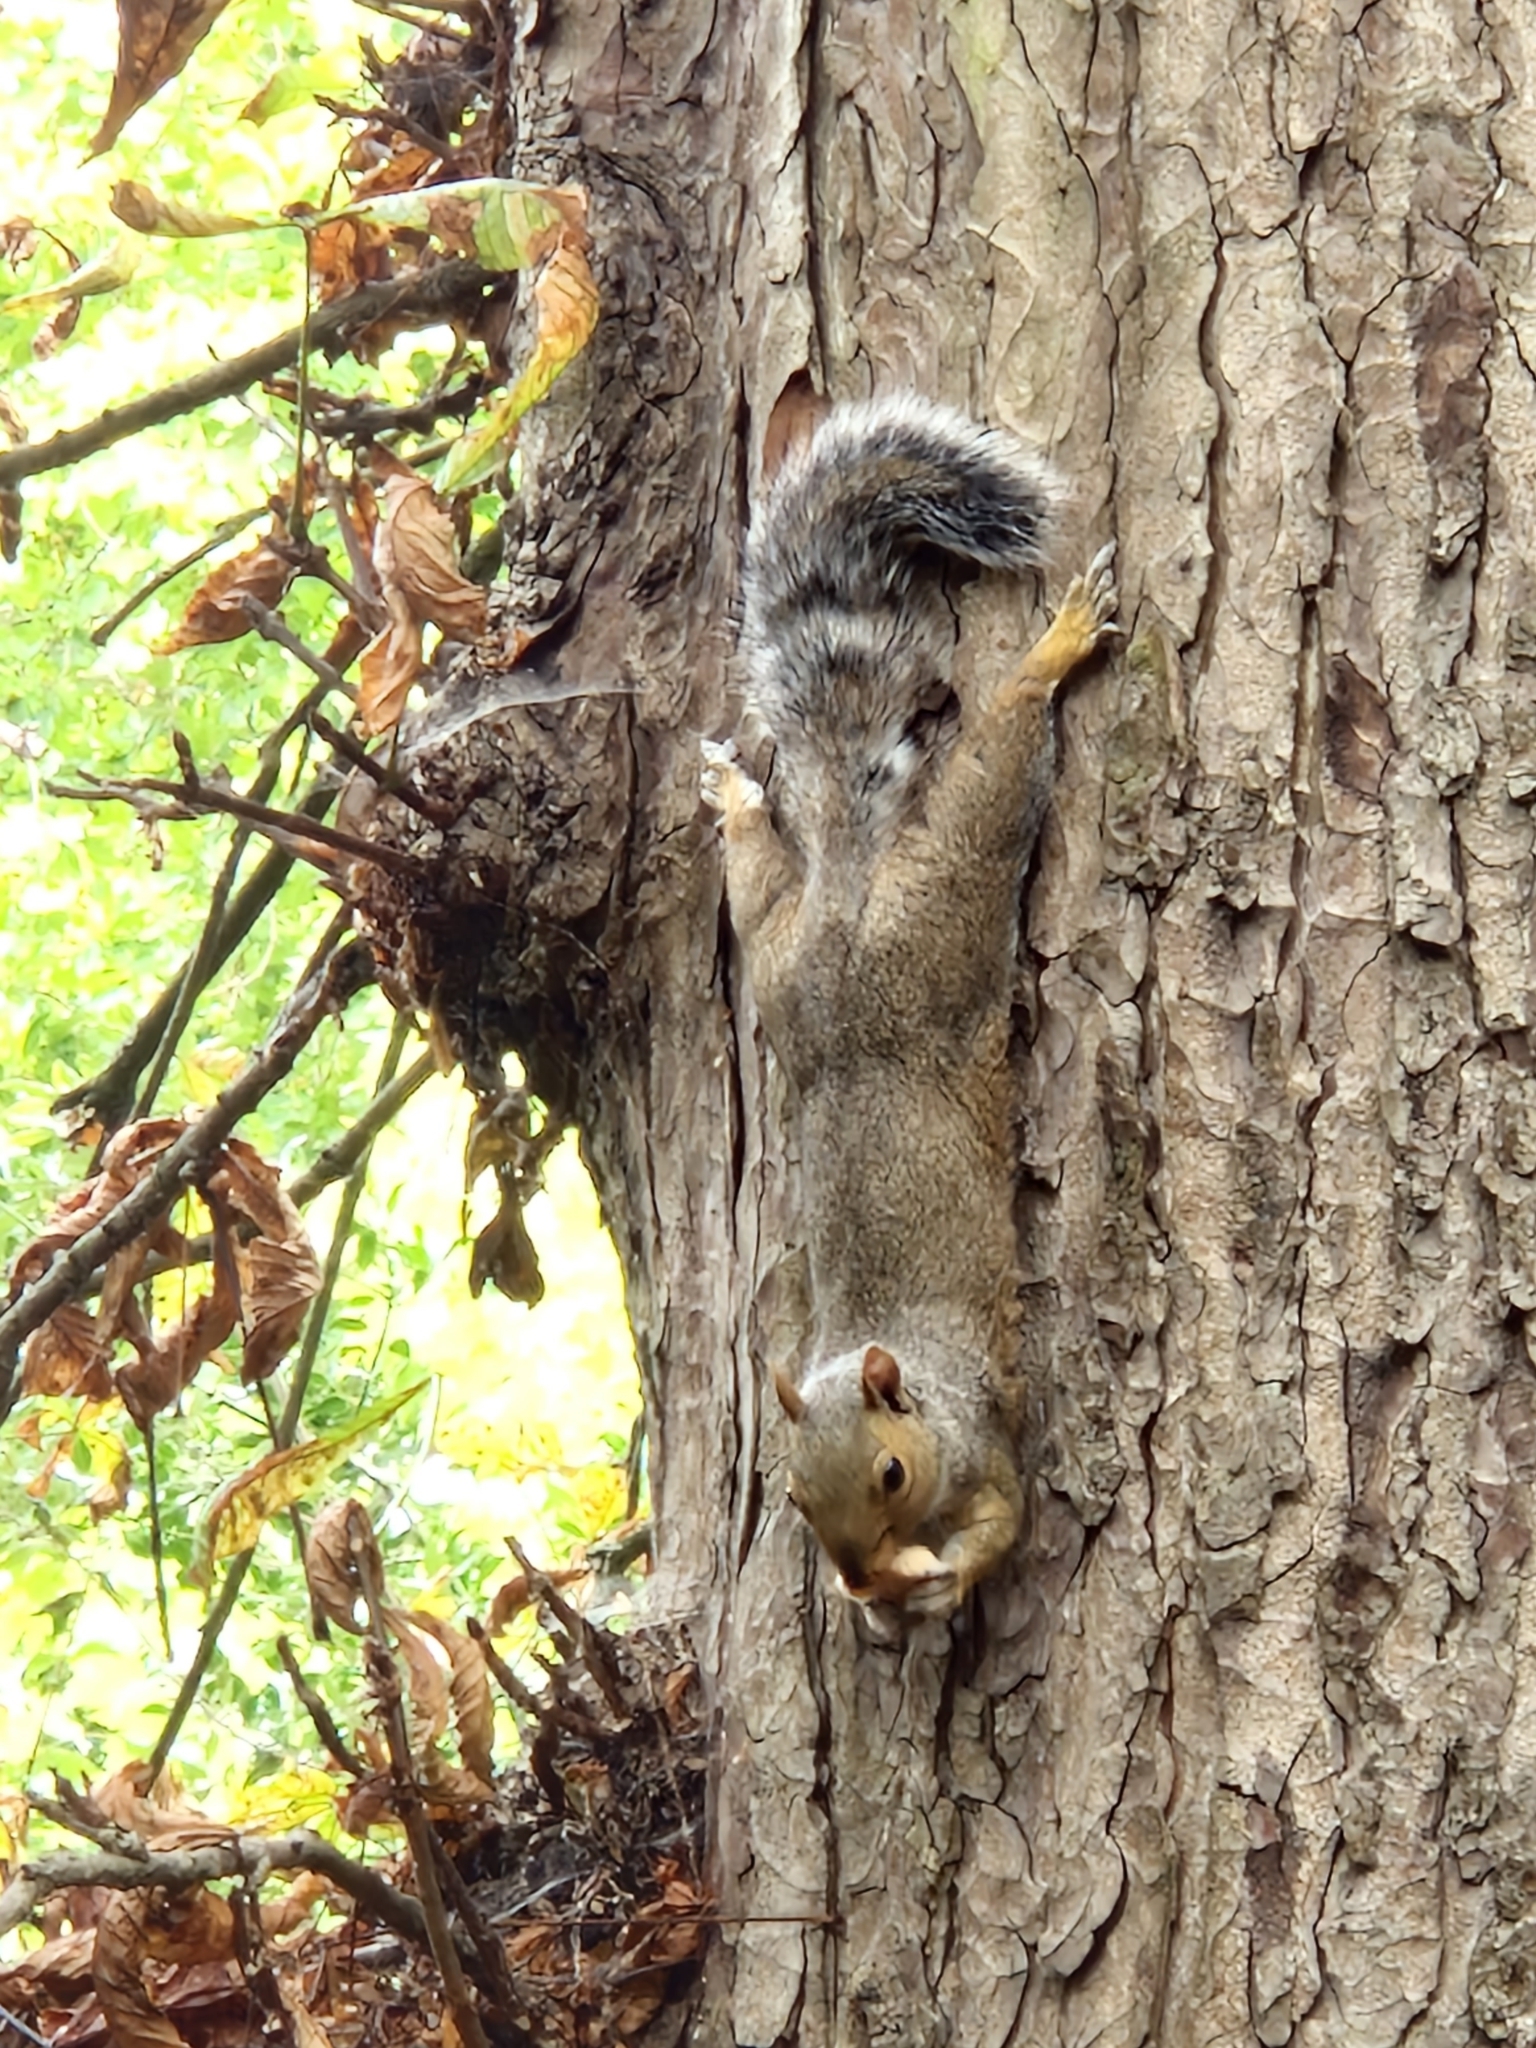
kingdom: Animalia
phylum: Chordata
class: Mammalia
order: Rodentia
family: Sciuridae
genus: Sciurus
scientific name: Sciurus carolinensis
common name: Eastern gray squirrel
